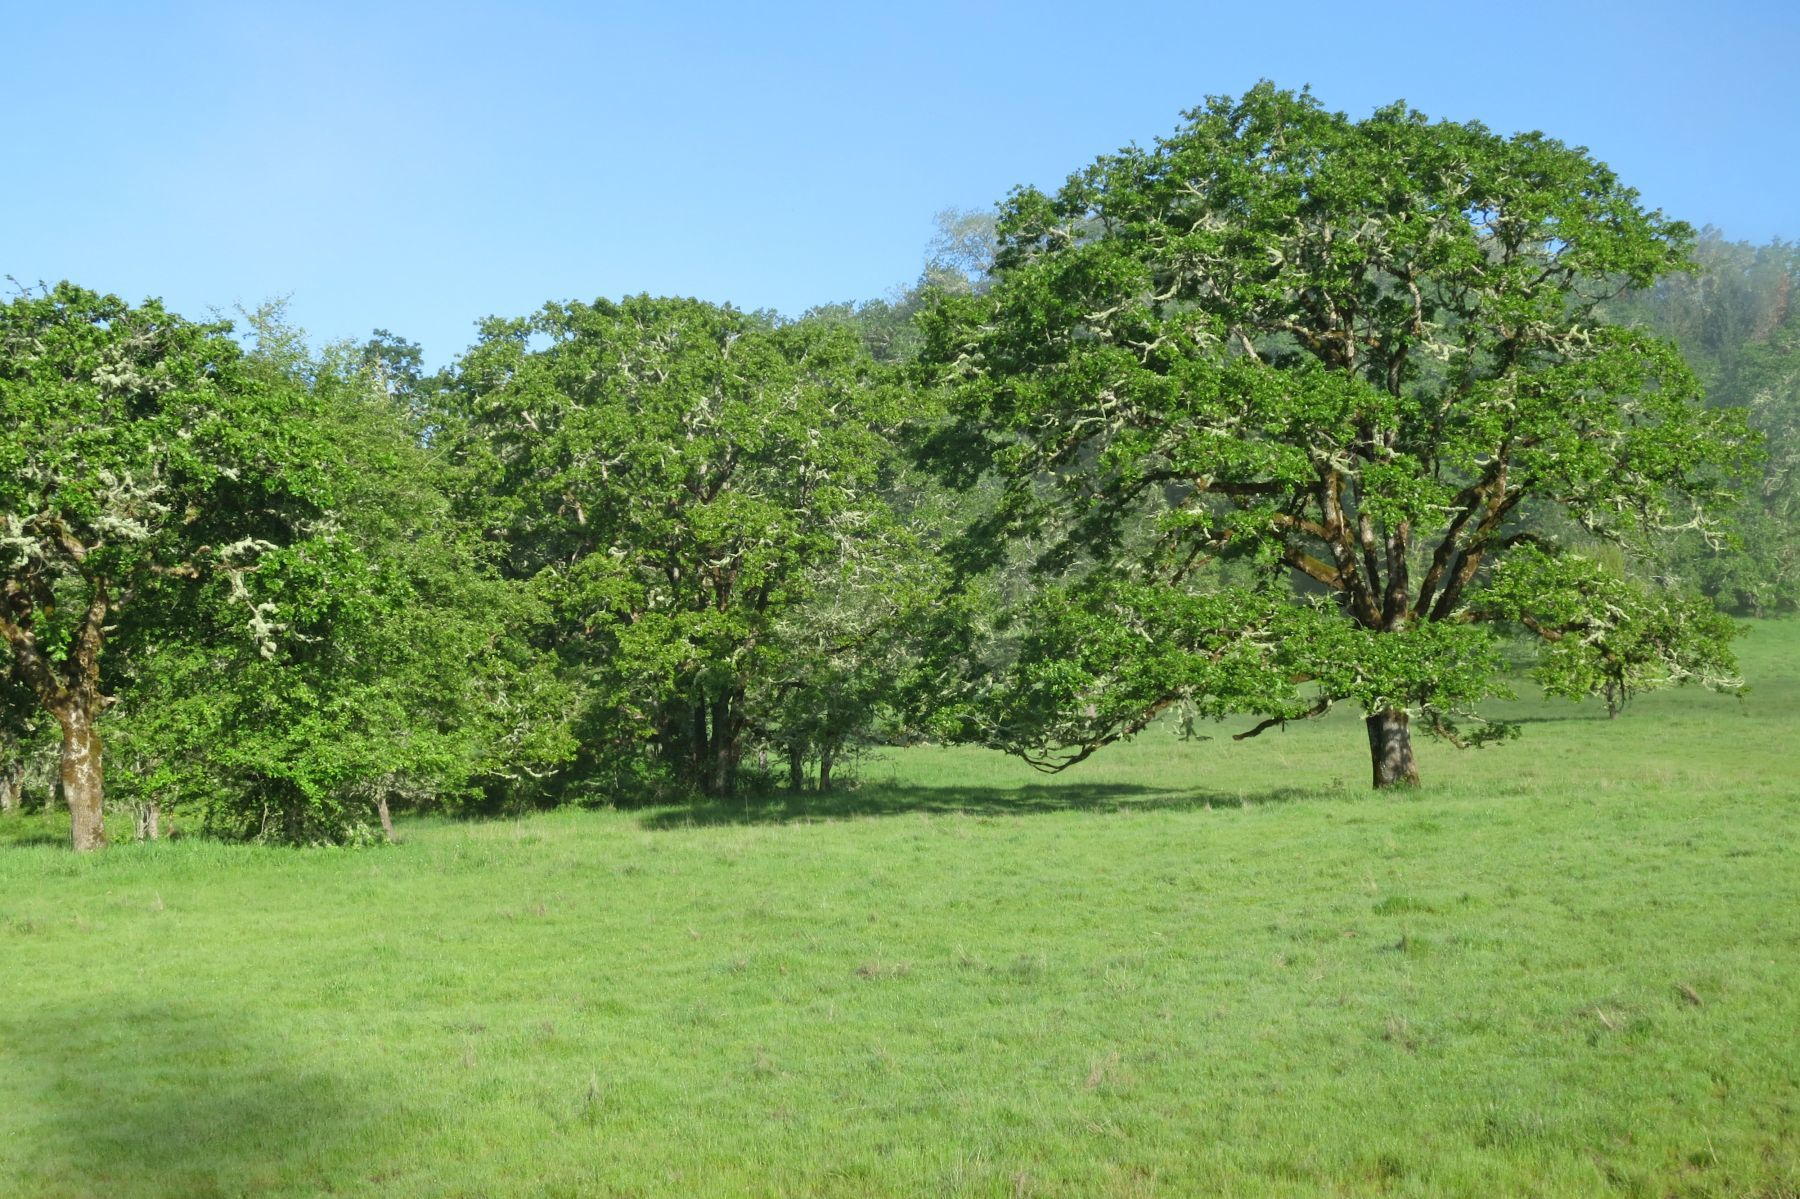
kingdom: Plantae
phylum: Tracheophyta
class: Magnoliopsida
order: Fagales
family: Fagaceae
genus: Quercus
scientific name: Quercus garryana
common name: Garry oak
